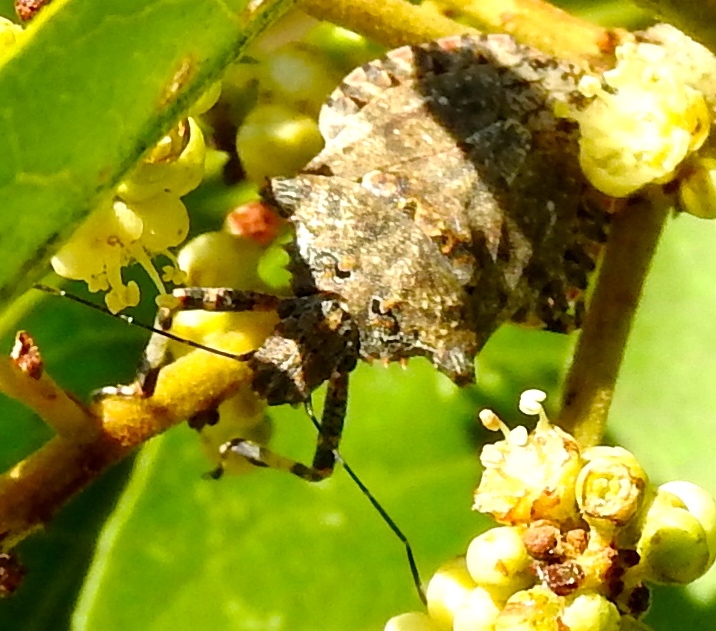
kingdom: Animalia
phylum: Arthropoda
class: Insecta
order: Hemiptera
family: Pentatomidae
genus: Brochymena
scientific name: Brochymena
